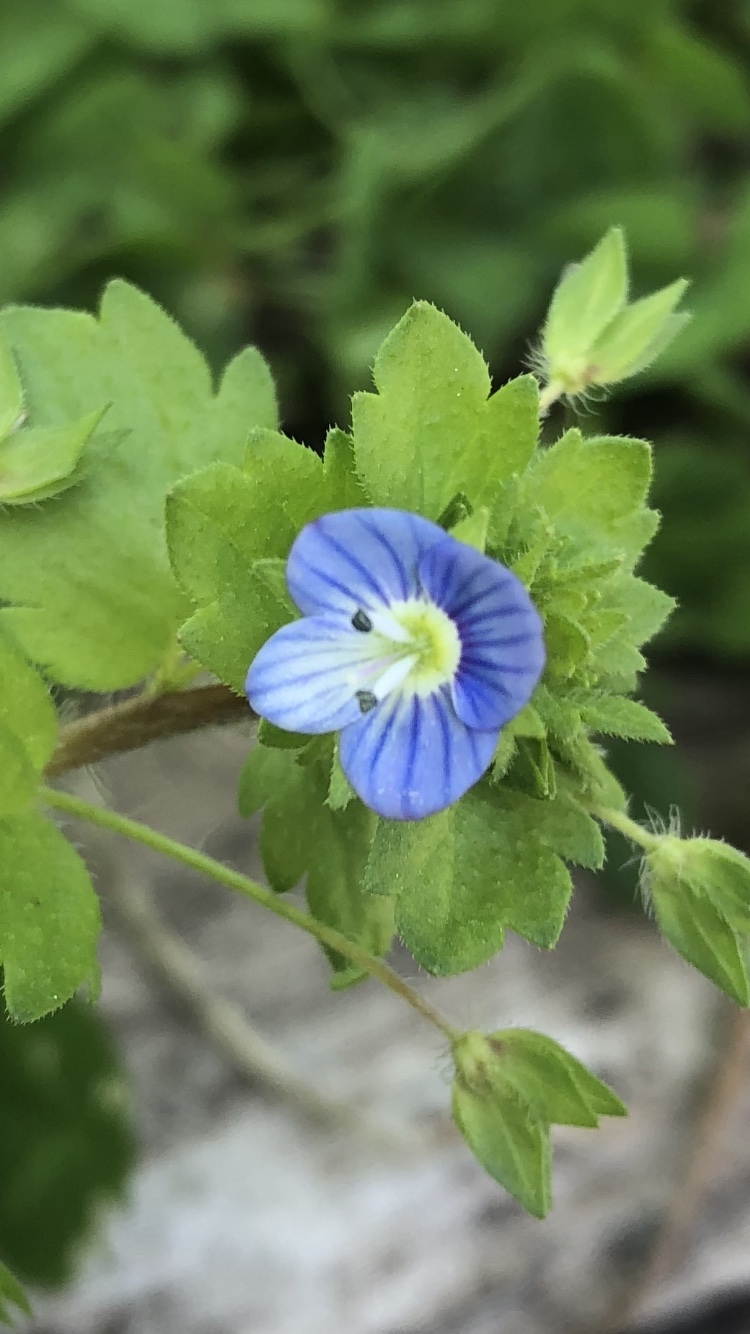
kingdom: Plantae
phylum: Tracheophyta
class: Magnoliopsida
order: Lamiales
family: Plantaginaceae
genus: Veronica
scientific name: Veronica persica
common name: Common field-speedwell
